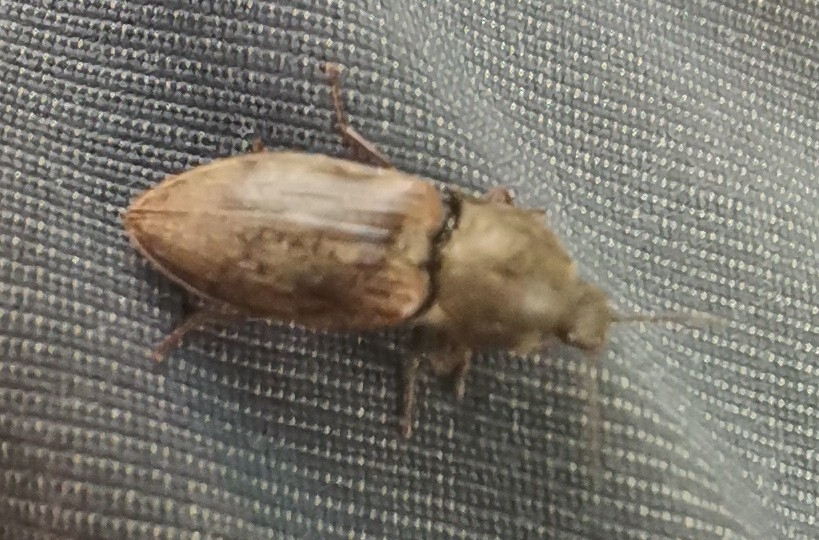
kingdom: Animalia
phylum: Arthropoda
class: Insecta
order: Coleoptera
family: Elateridae
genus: Prosternon
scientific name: Prosternon tessellatum
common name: Chequered click beetle
